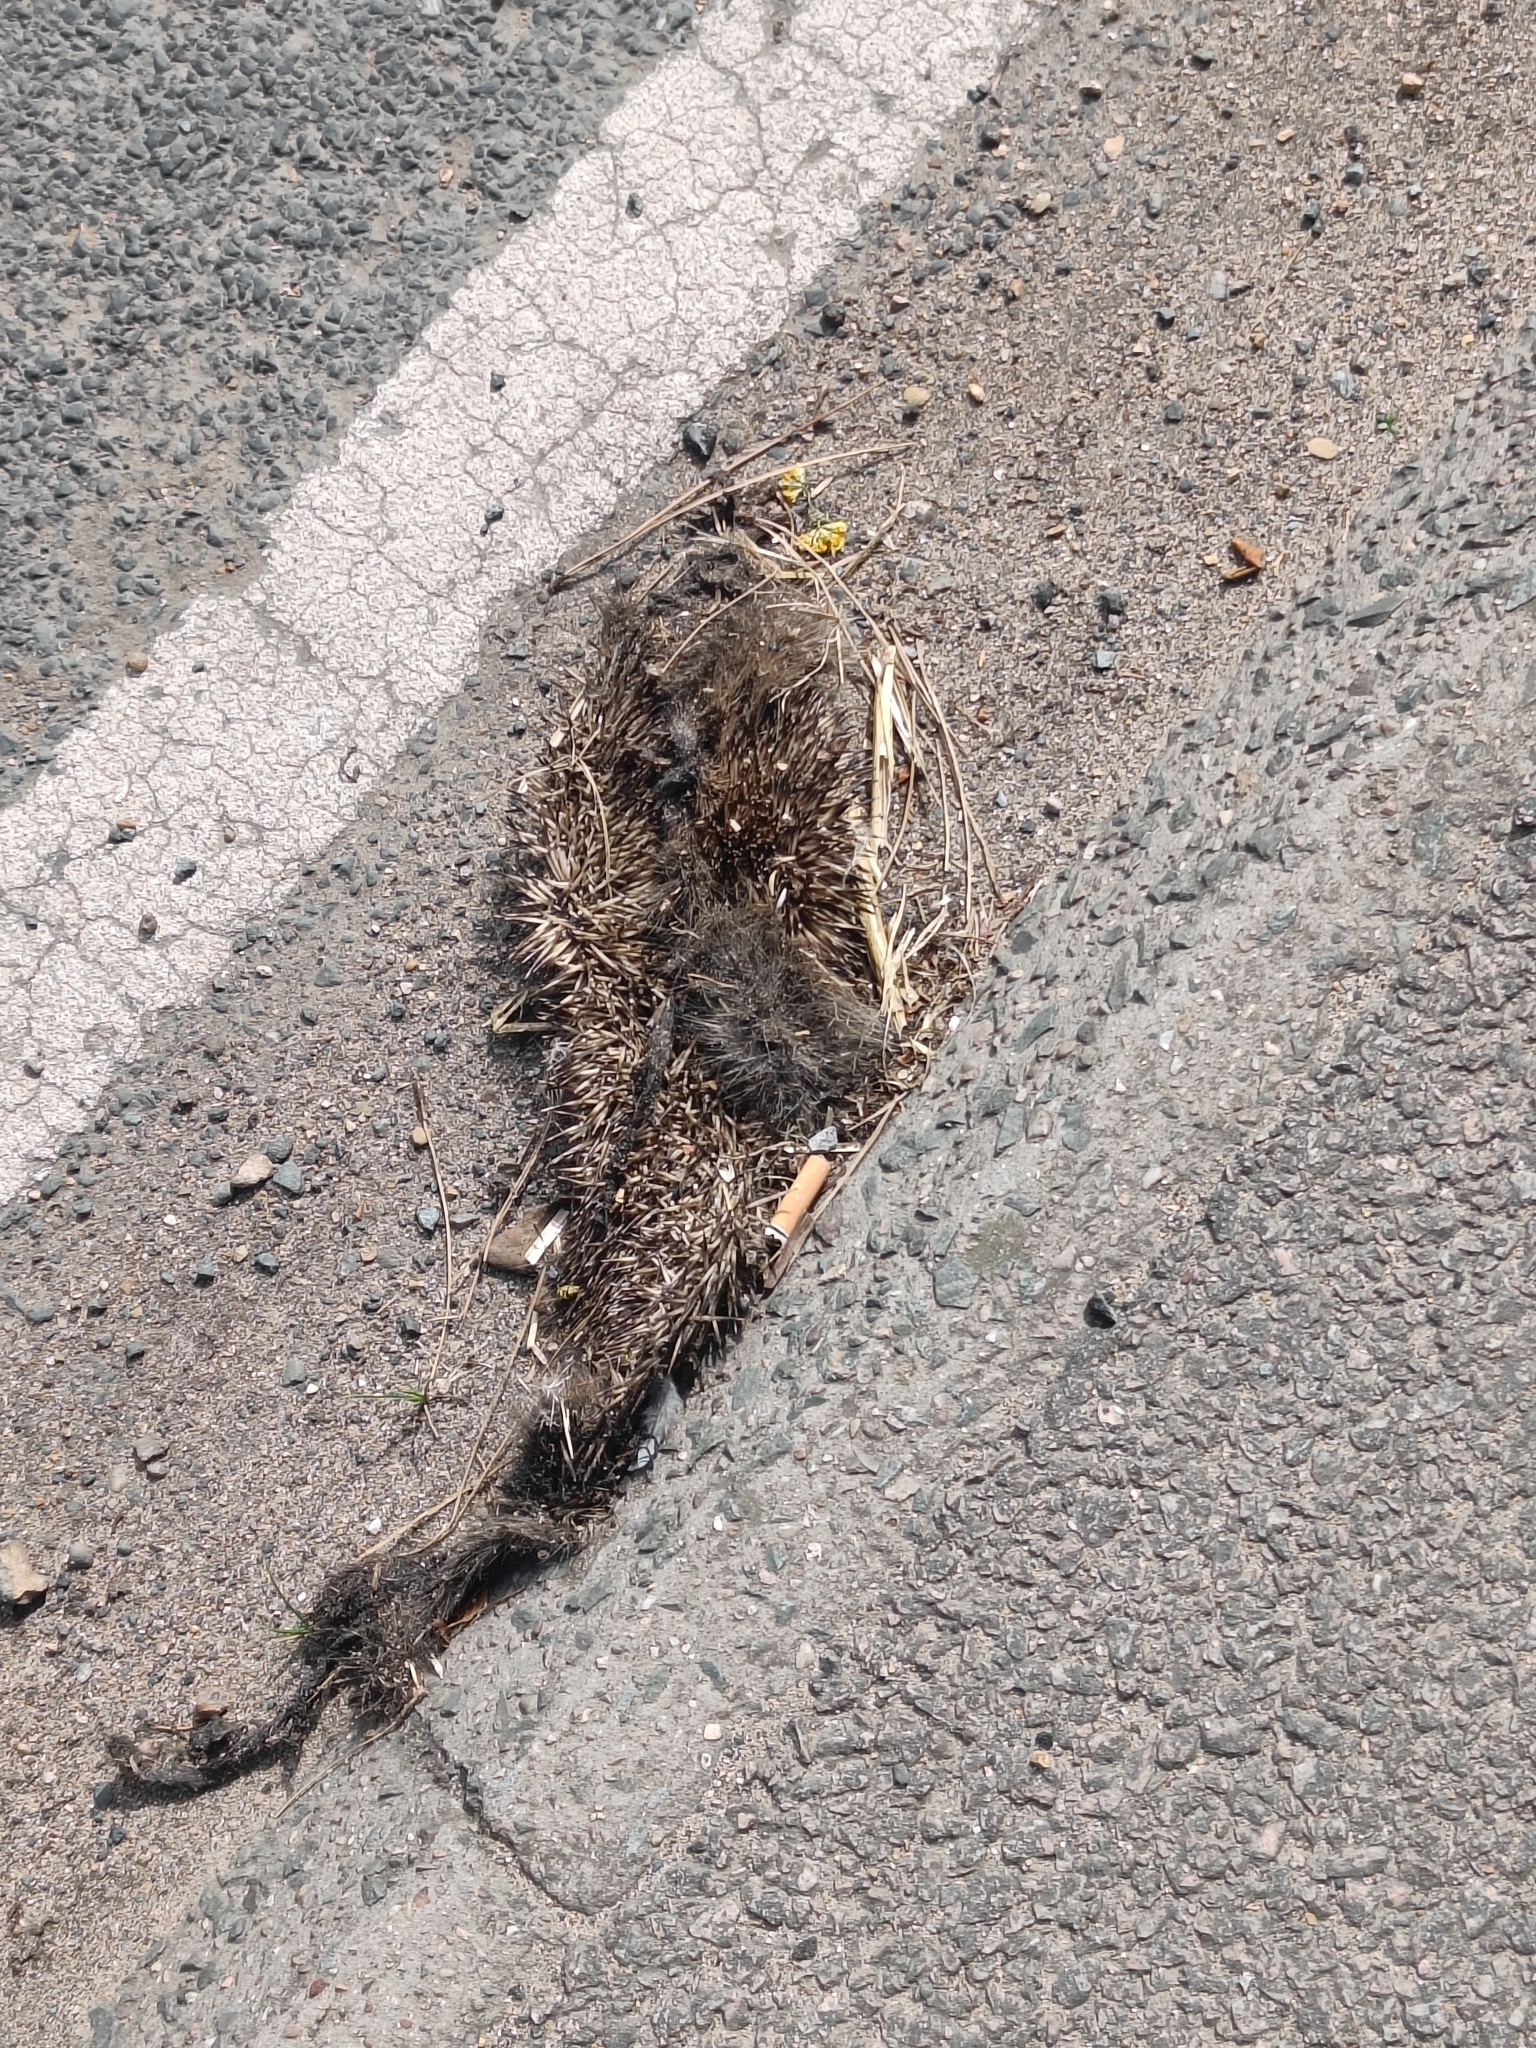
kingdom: Animalia
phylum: Chordata
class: Mammalia
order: Erinaceomorpha
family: Erinaceidae
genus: Erinaceus
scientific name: Erinaceus europaeus
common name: West european hedgehog
